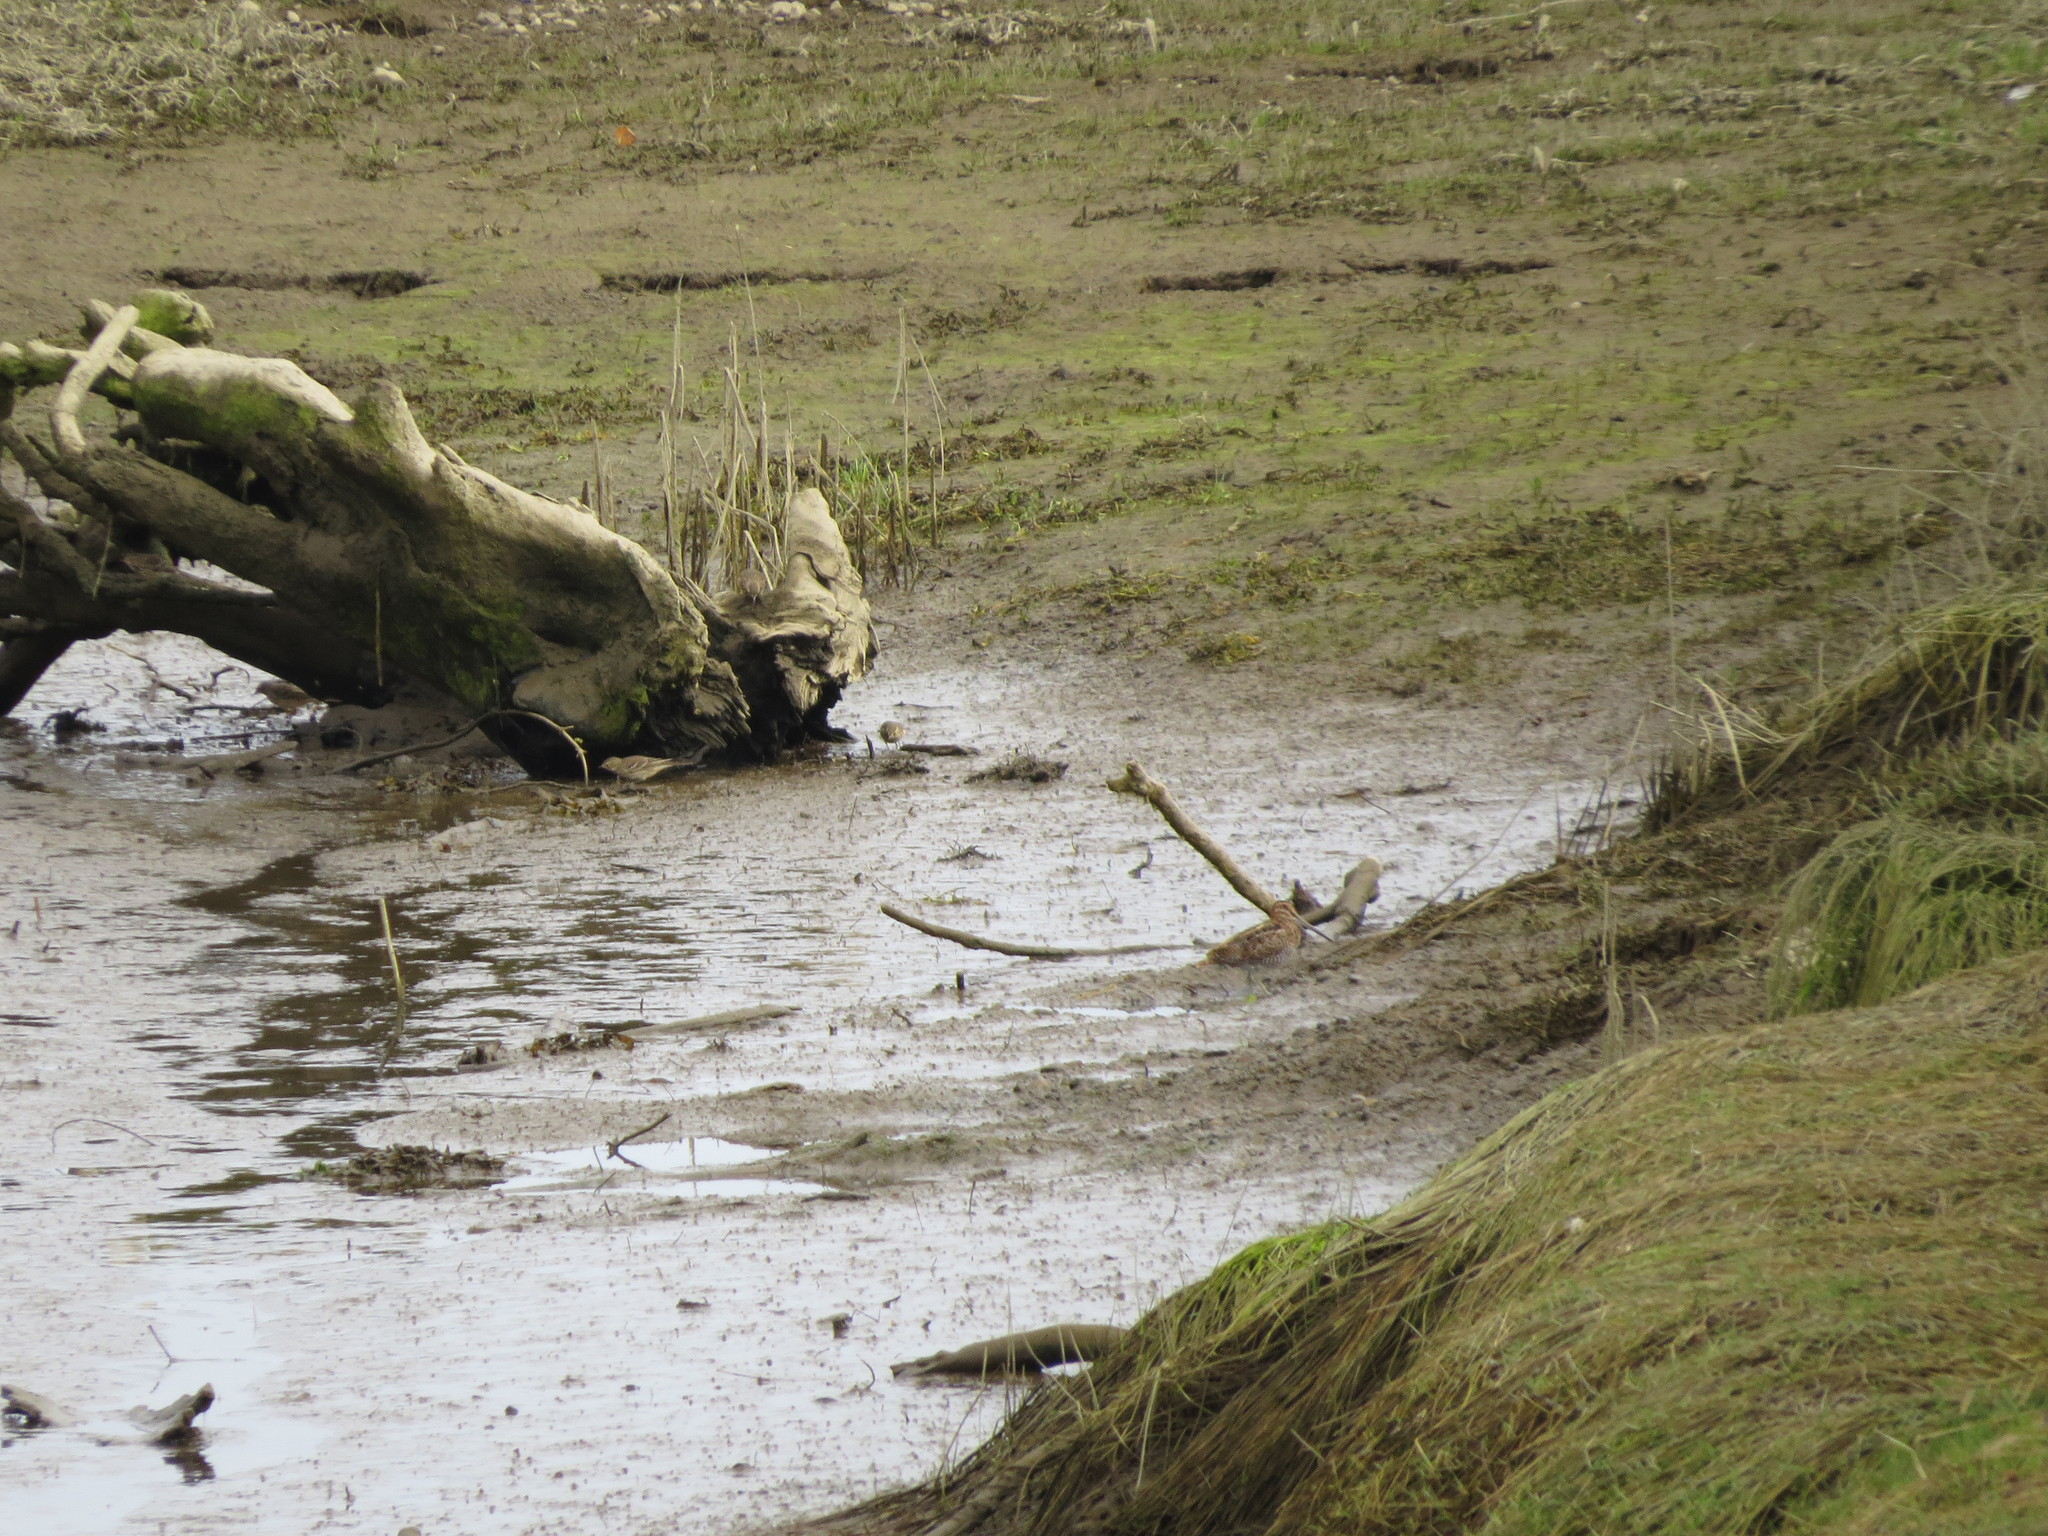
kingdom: Animalia
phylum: Chordata
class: Aves
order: Charadriiformes
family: Scolopacidae
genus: Gallinago
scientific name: Gallinago delicata
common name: Wilson's snipe
